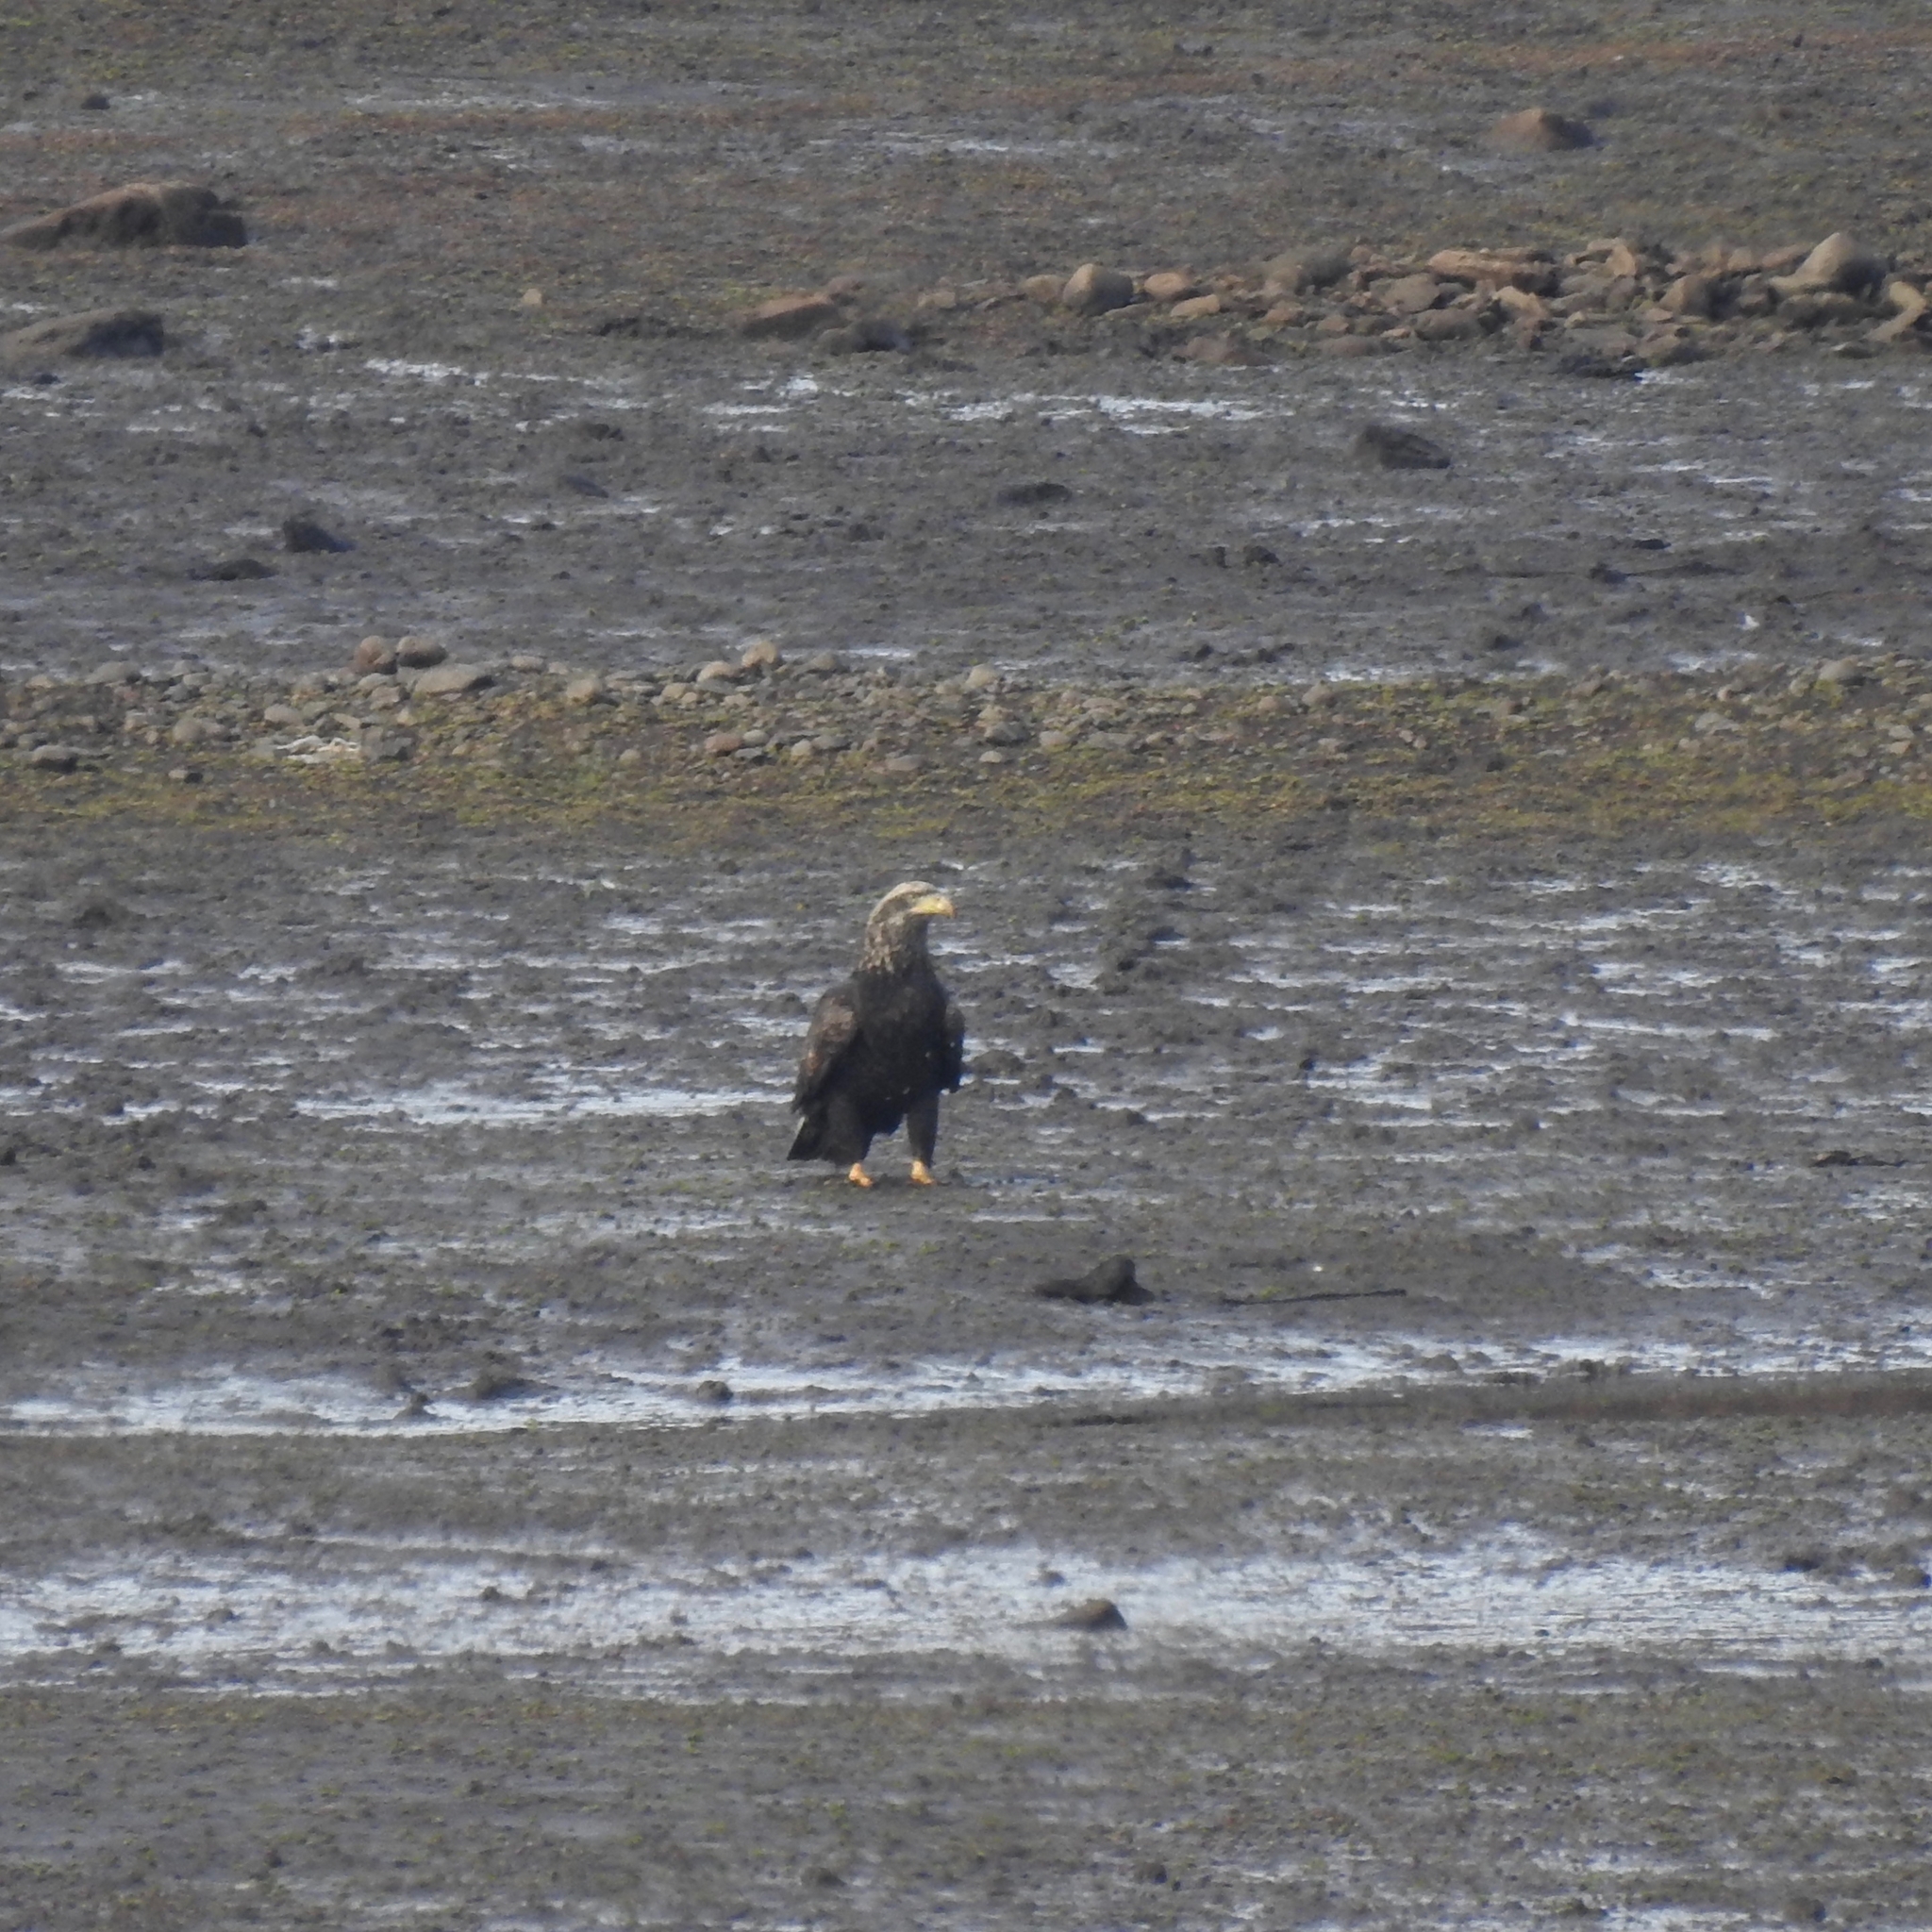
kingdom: Animalia
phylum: Chordata
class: Aves
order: Accipitriformes
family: Accipitridae
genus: Haliaeetus
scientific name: Haliaeetus leucocephalus
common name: Bald eagle
